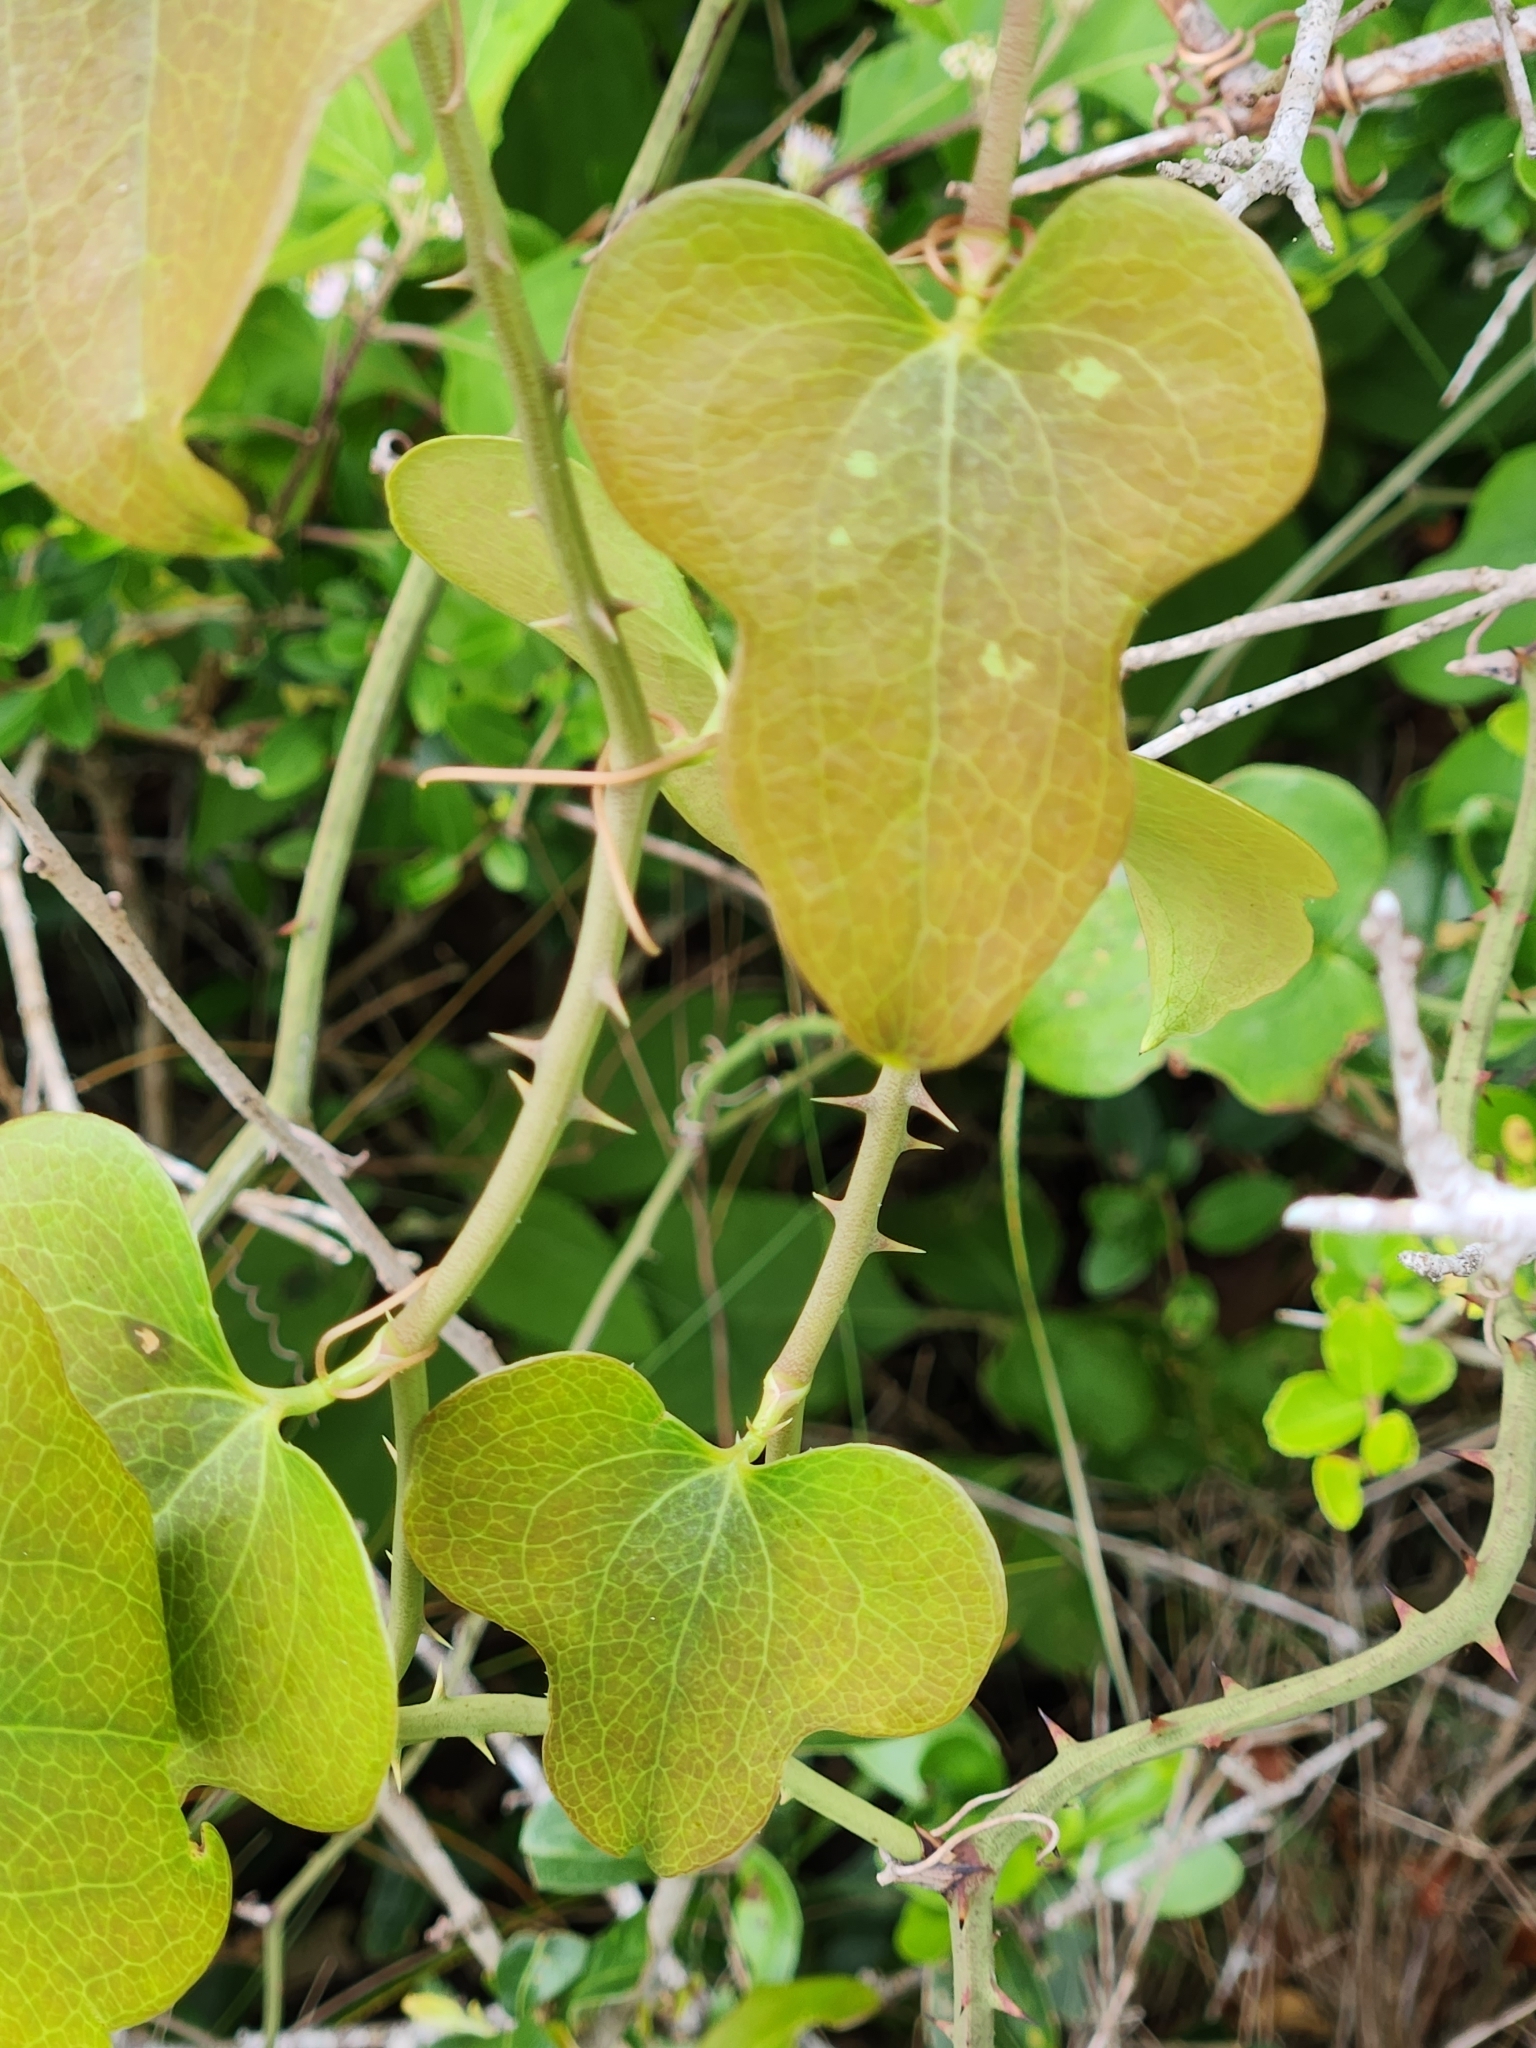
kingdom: Plantae
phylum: Tracheophyta
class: Liliopsida
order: Liliales
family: Smilacaceae
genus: Smilax
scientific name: Smilax bona-nox
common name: Catbrier
